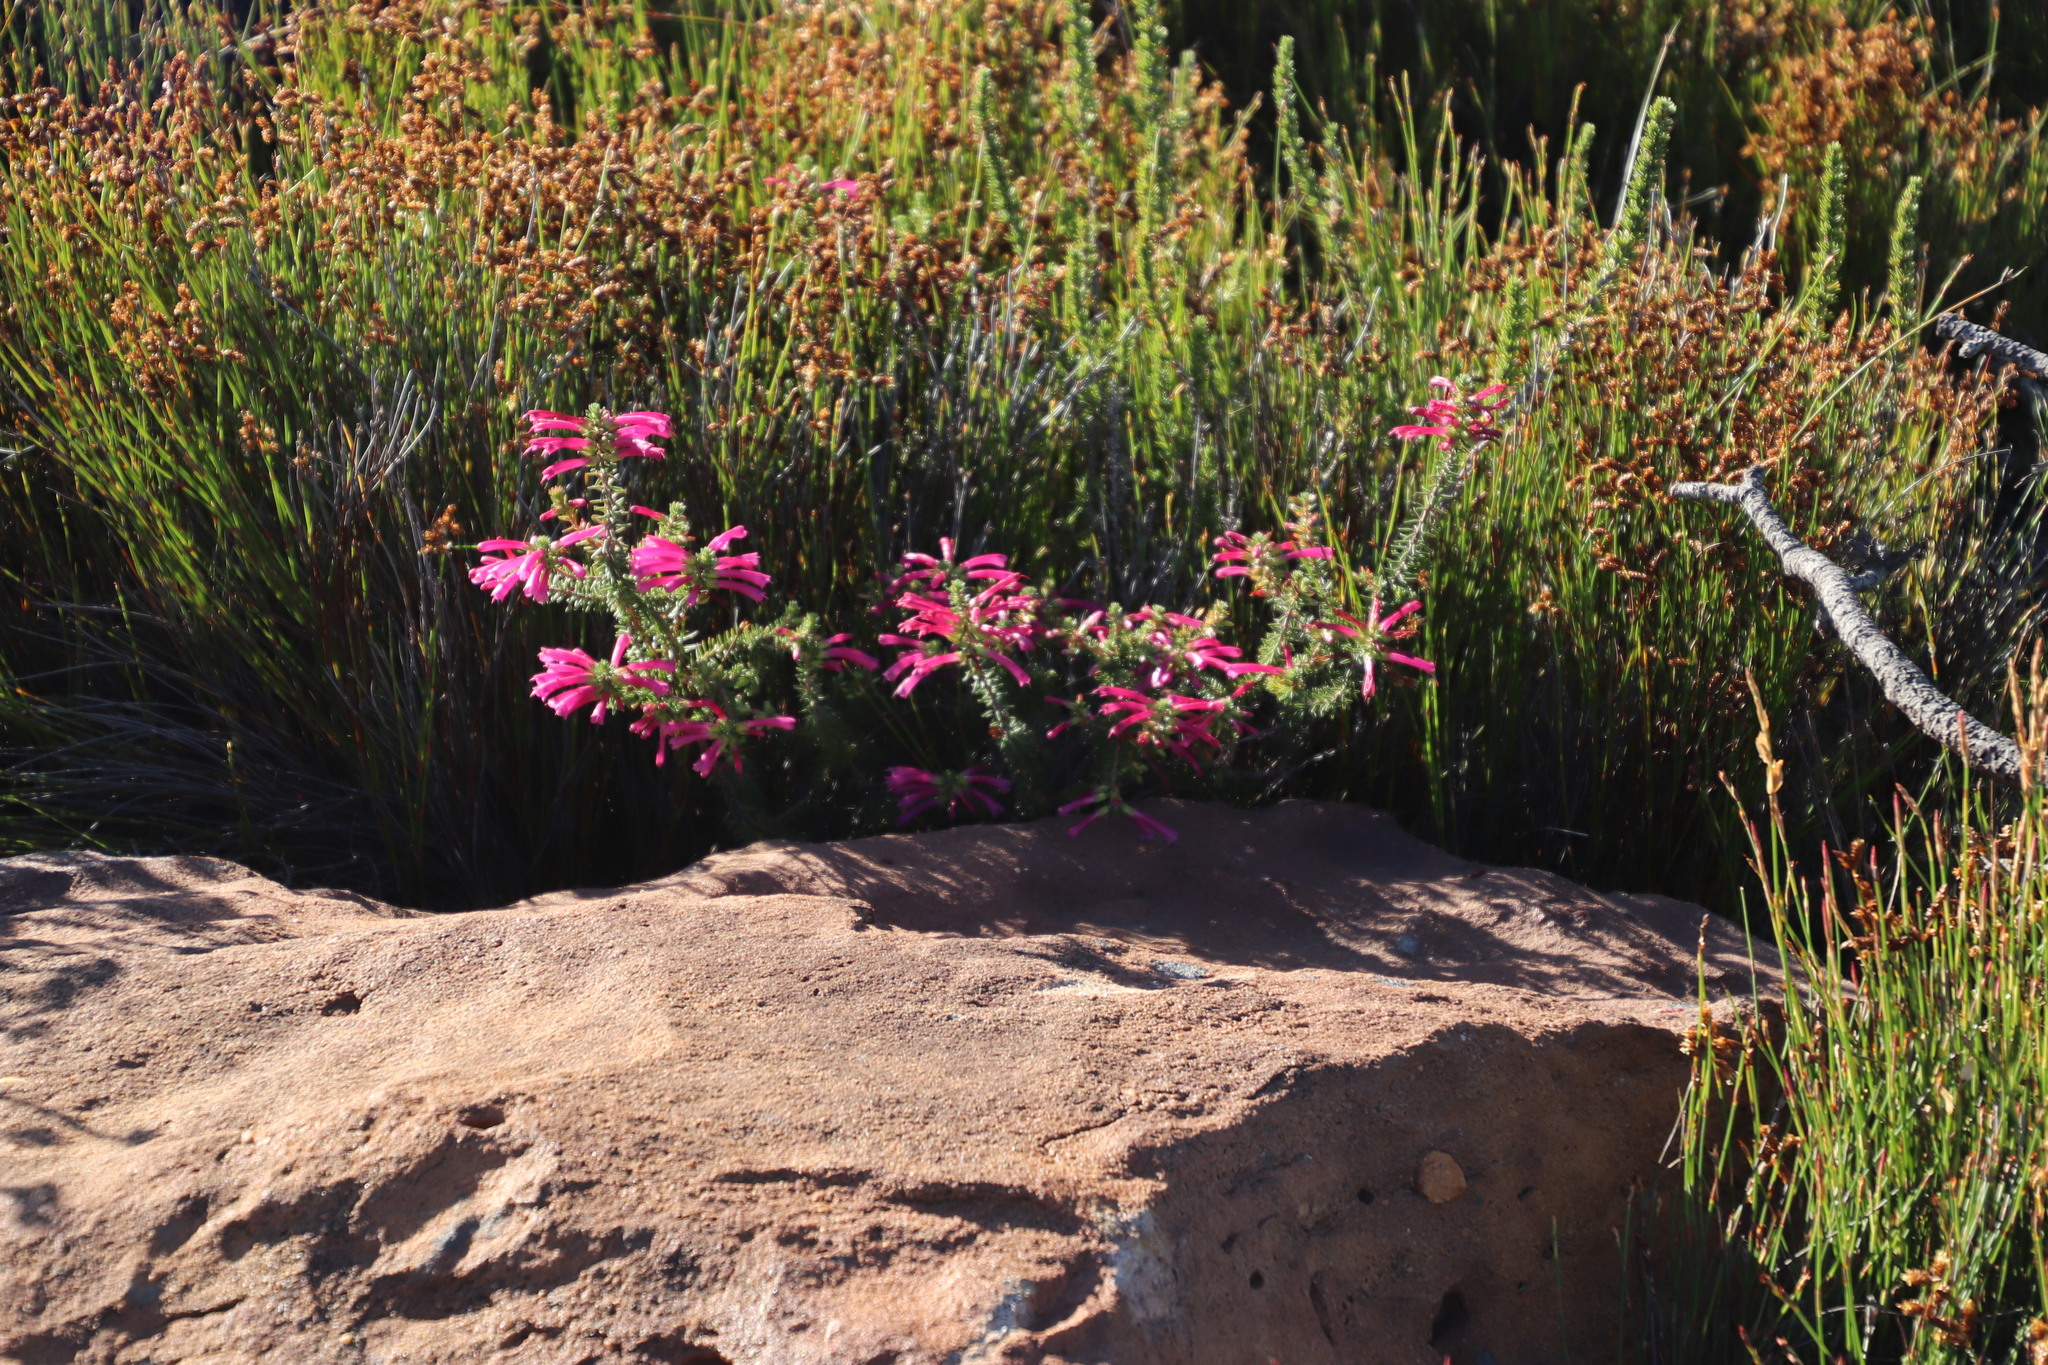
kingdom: Plantae
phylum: Tracheophyta
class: Magnoliopsida
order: Ericales
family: Ericaceae
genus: Erica
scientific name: Erica abietina
